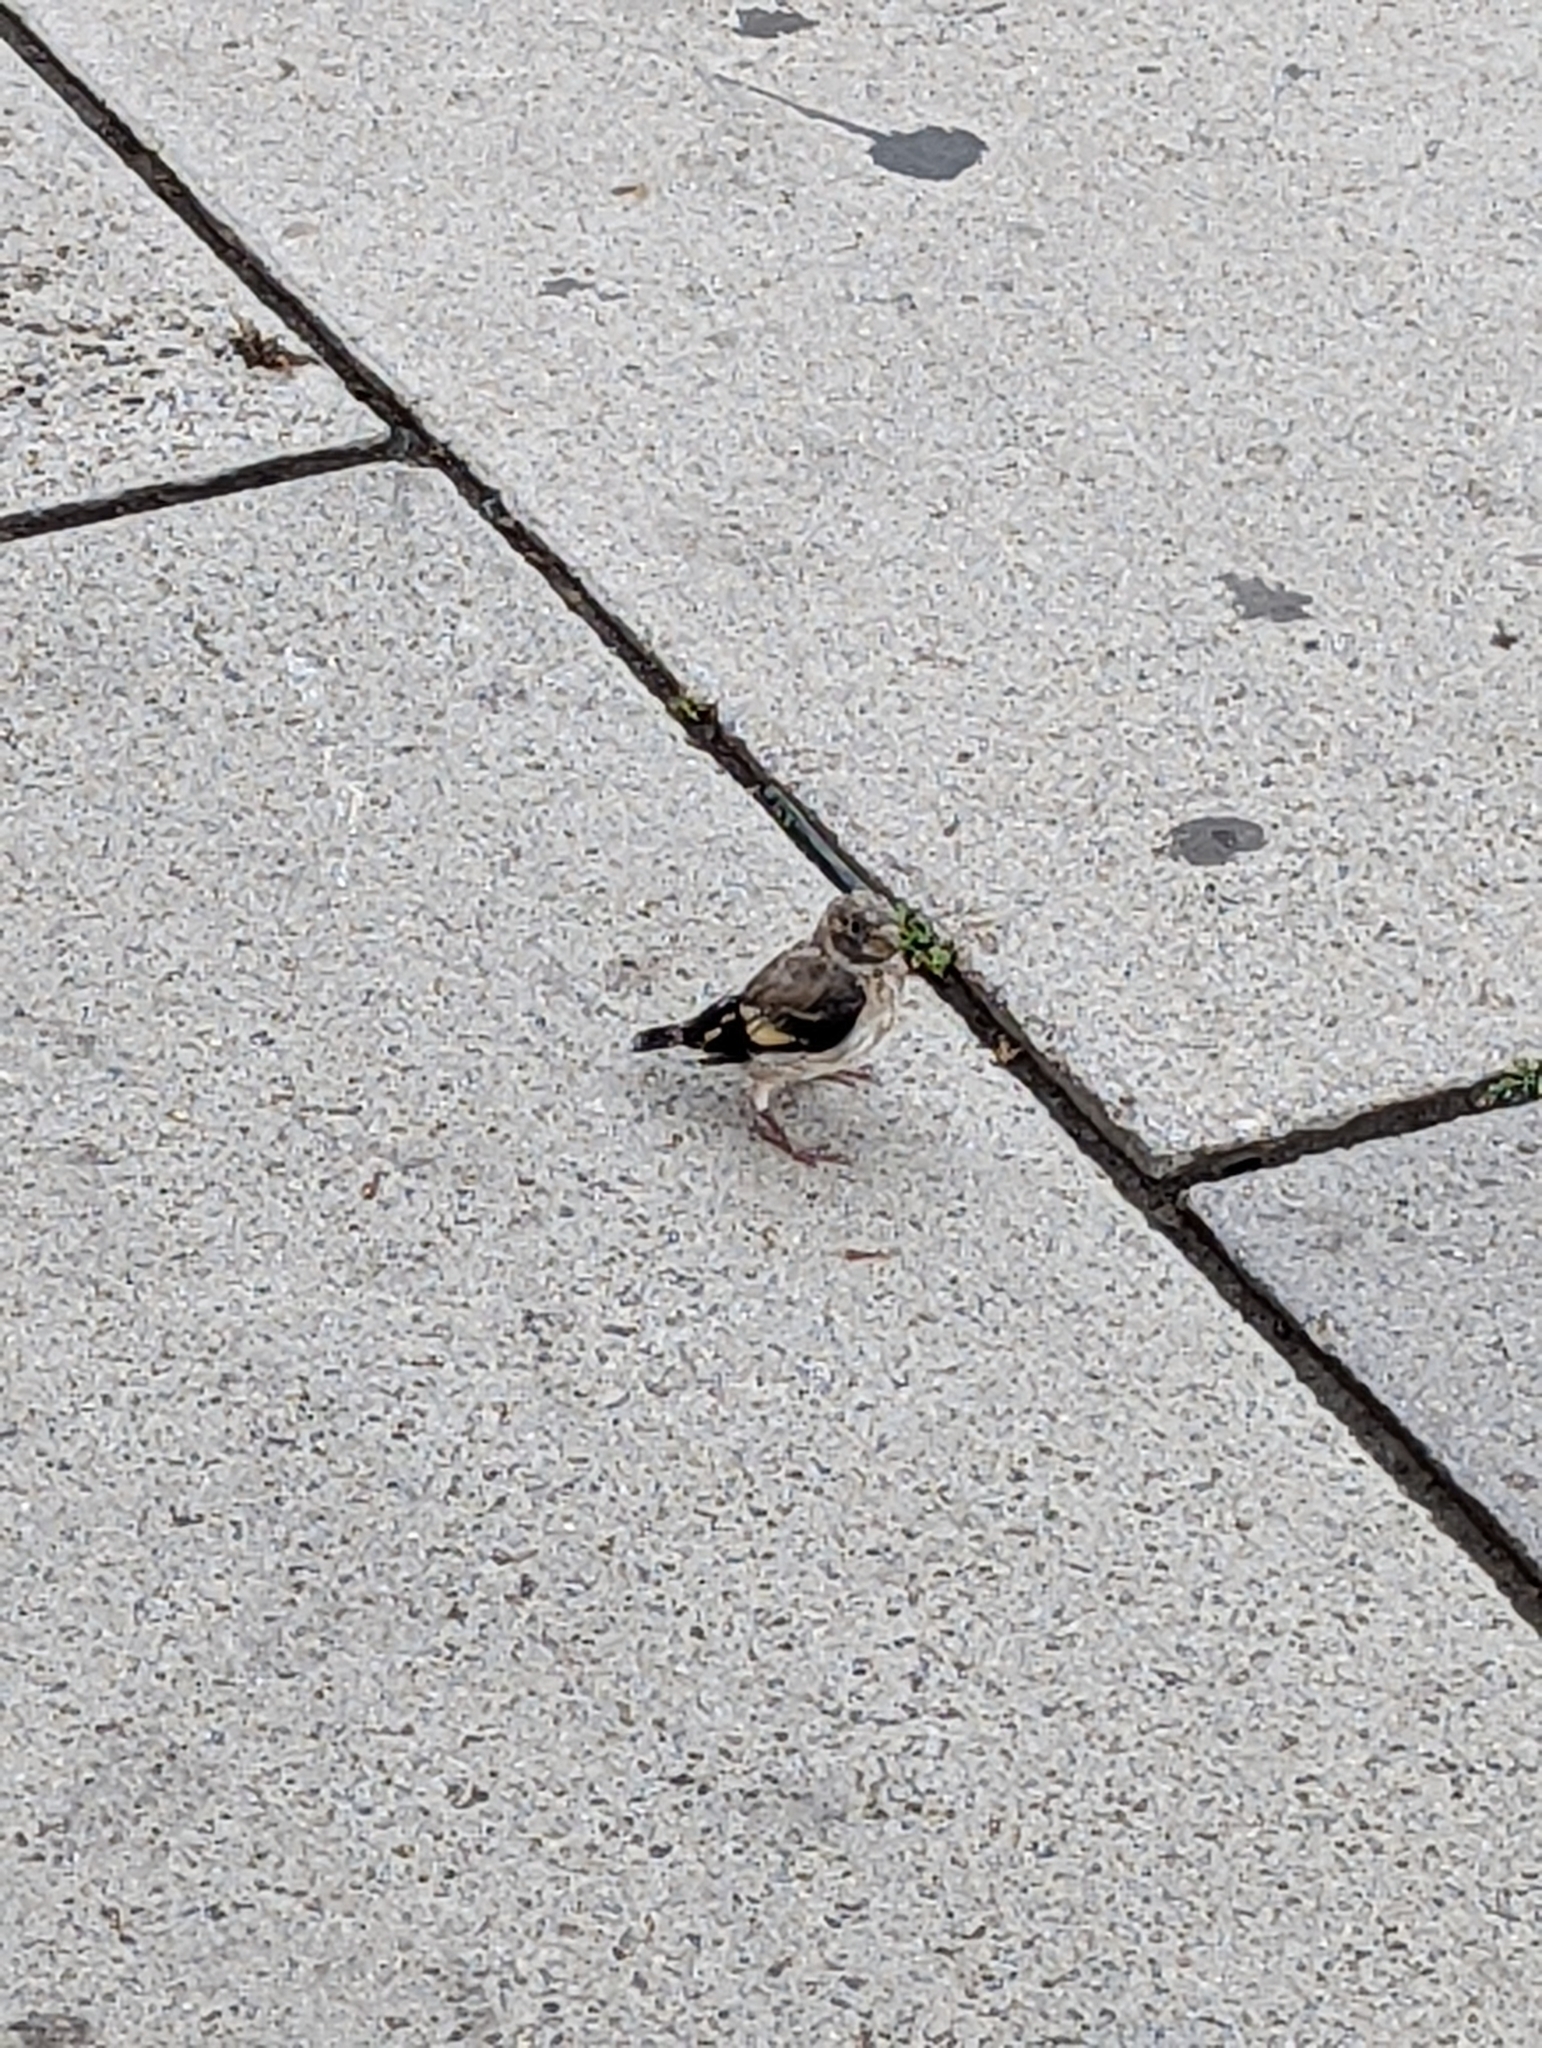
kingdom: Animalia
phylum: Chordata
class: Aves
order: Passeriformes
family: Fringillidae
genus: Carduelis
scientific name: Carduelis carduelis
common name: European goldfinch
